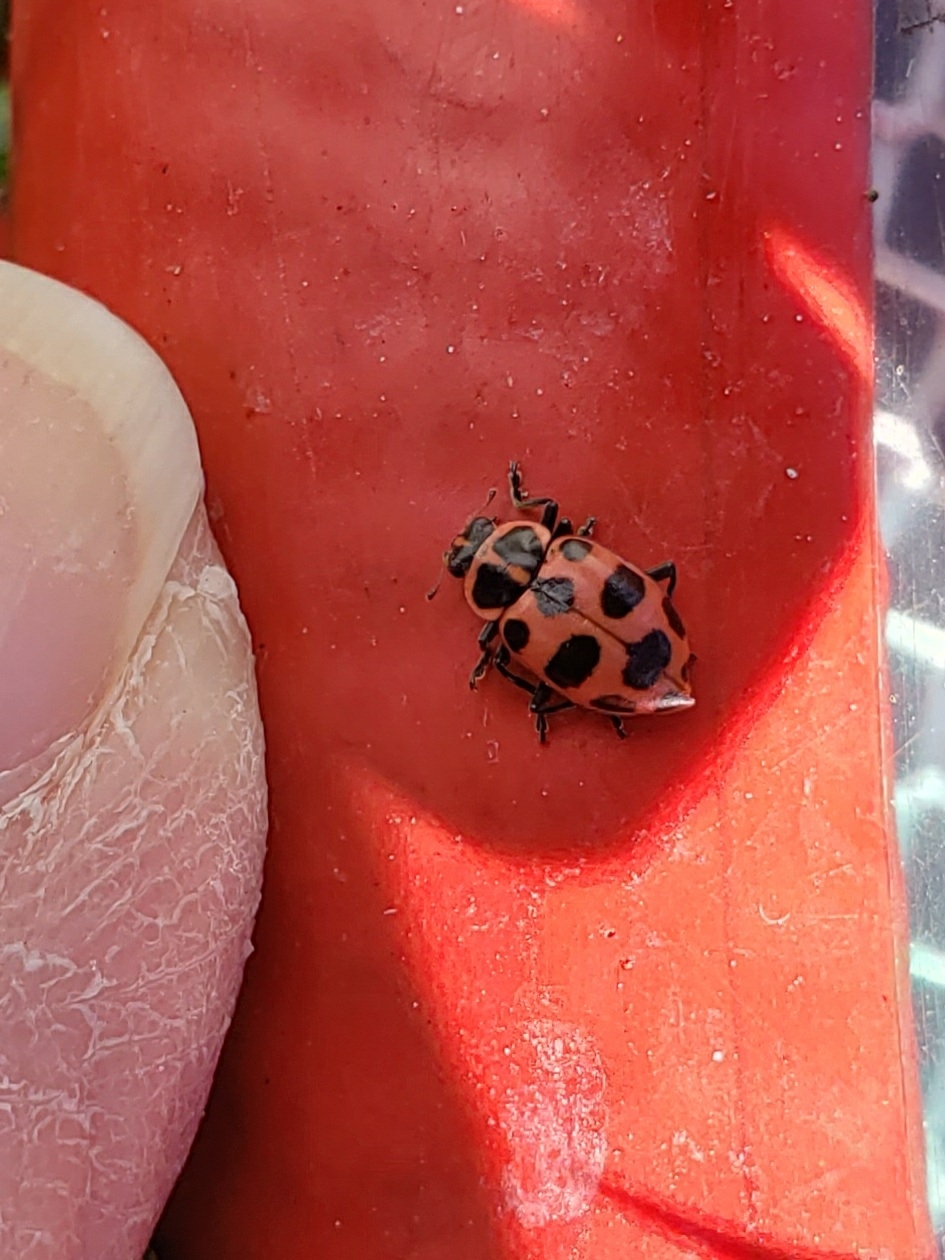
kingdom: Animalia
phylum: Arthropoda
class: Insecta
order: Coleoptera
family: Coccinellidae
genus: Coleomegilla
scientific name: Coleomegilla maculata
